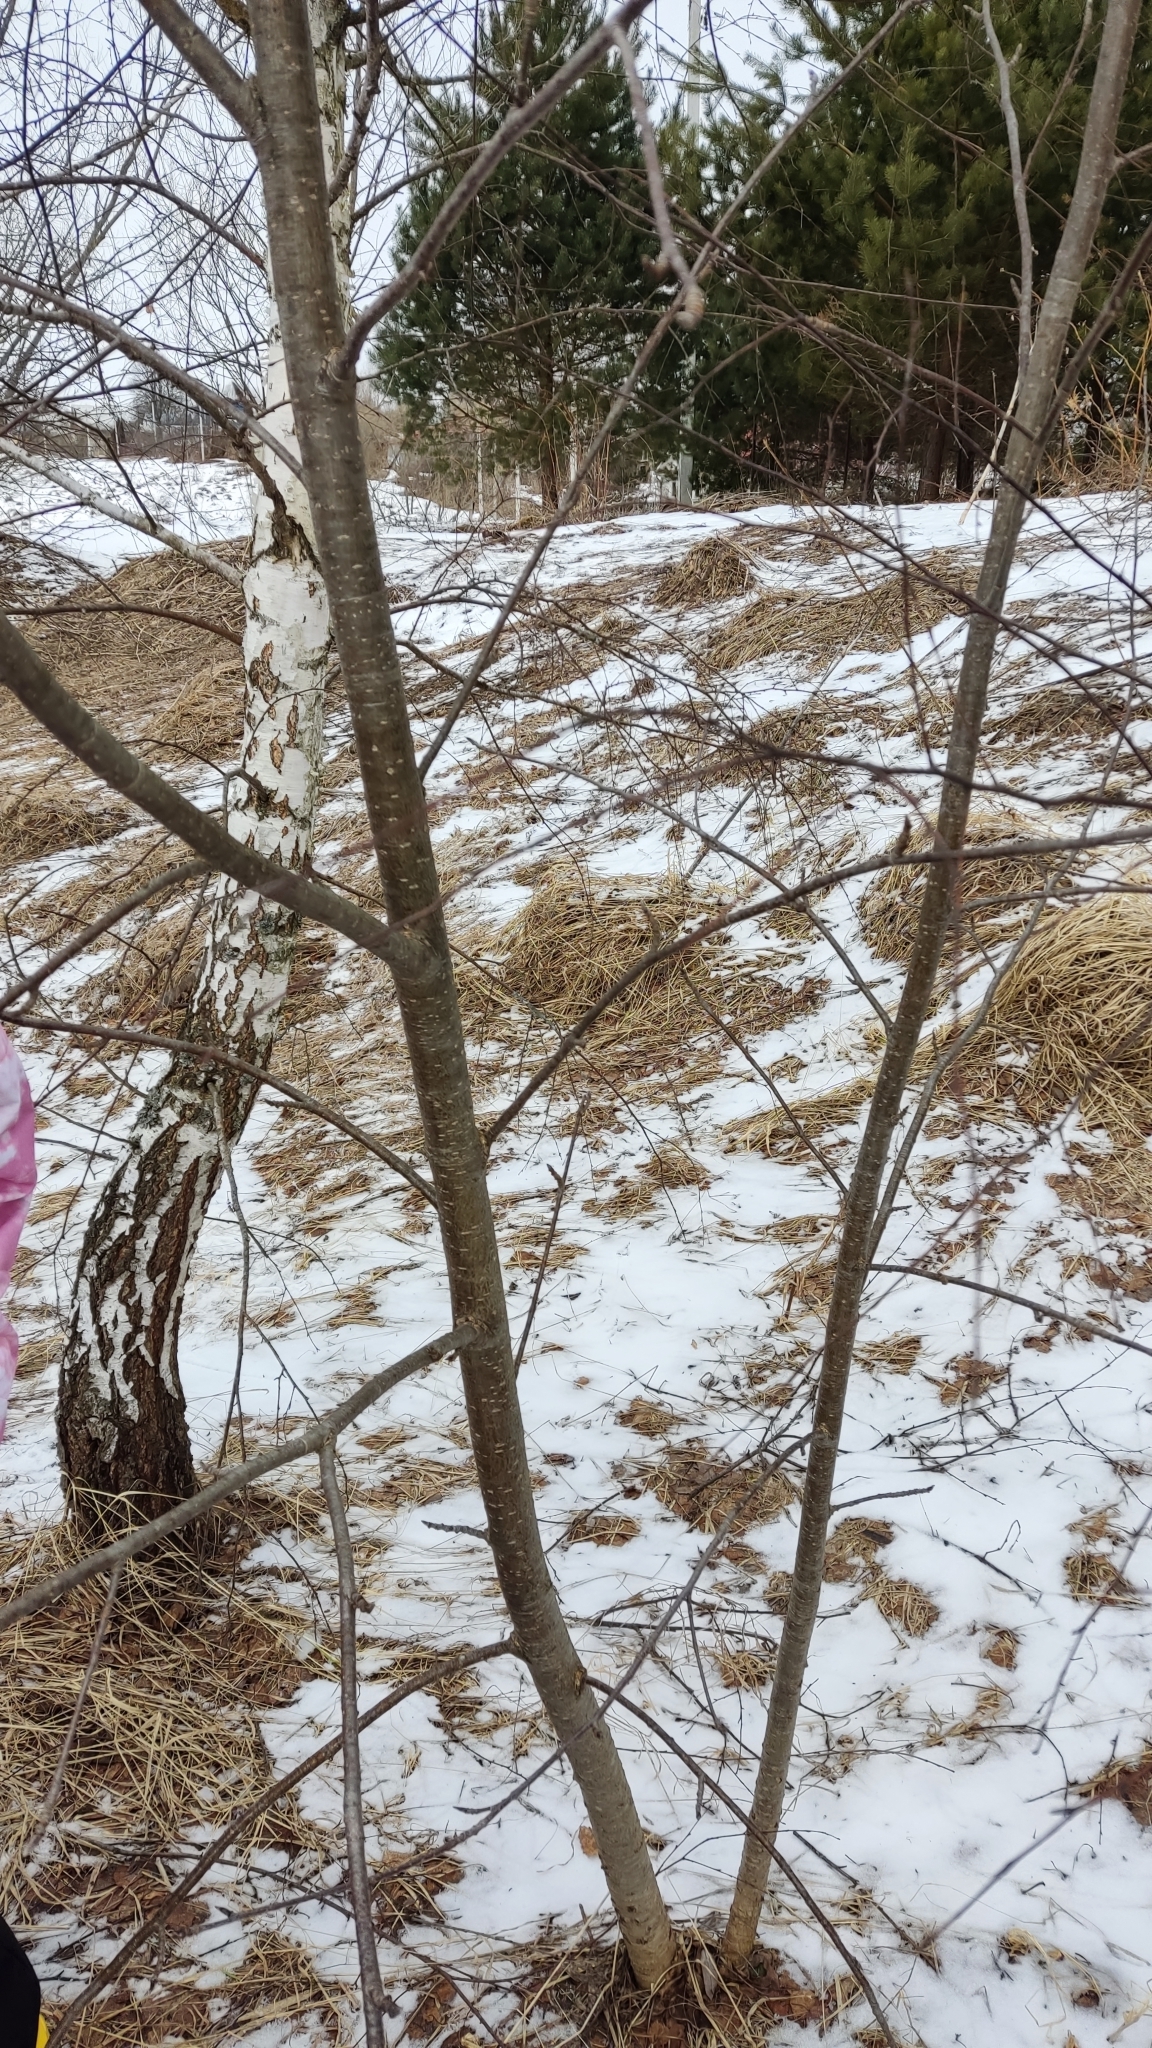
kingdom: Plantae
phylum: Tracheophyta
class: Magnoliopsida
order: Rosales
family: Rosaceae
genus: Sorbus
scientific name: Sorbus aucuparia
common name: Rowan
